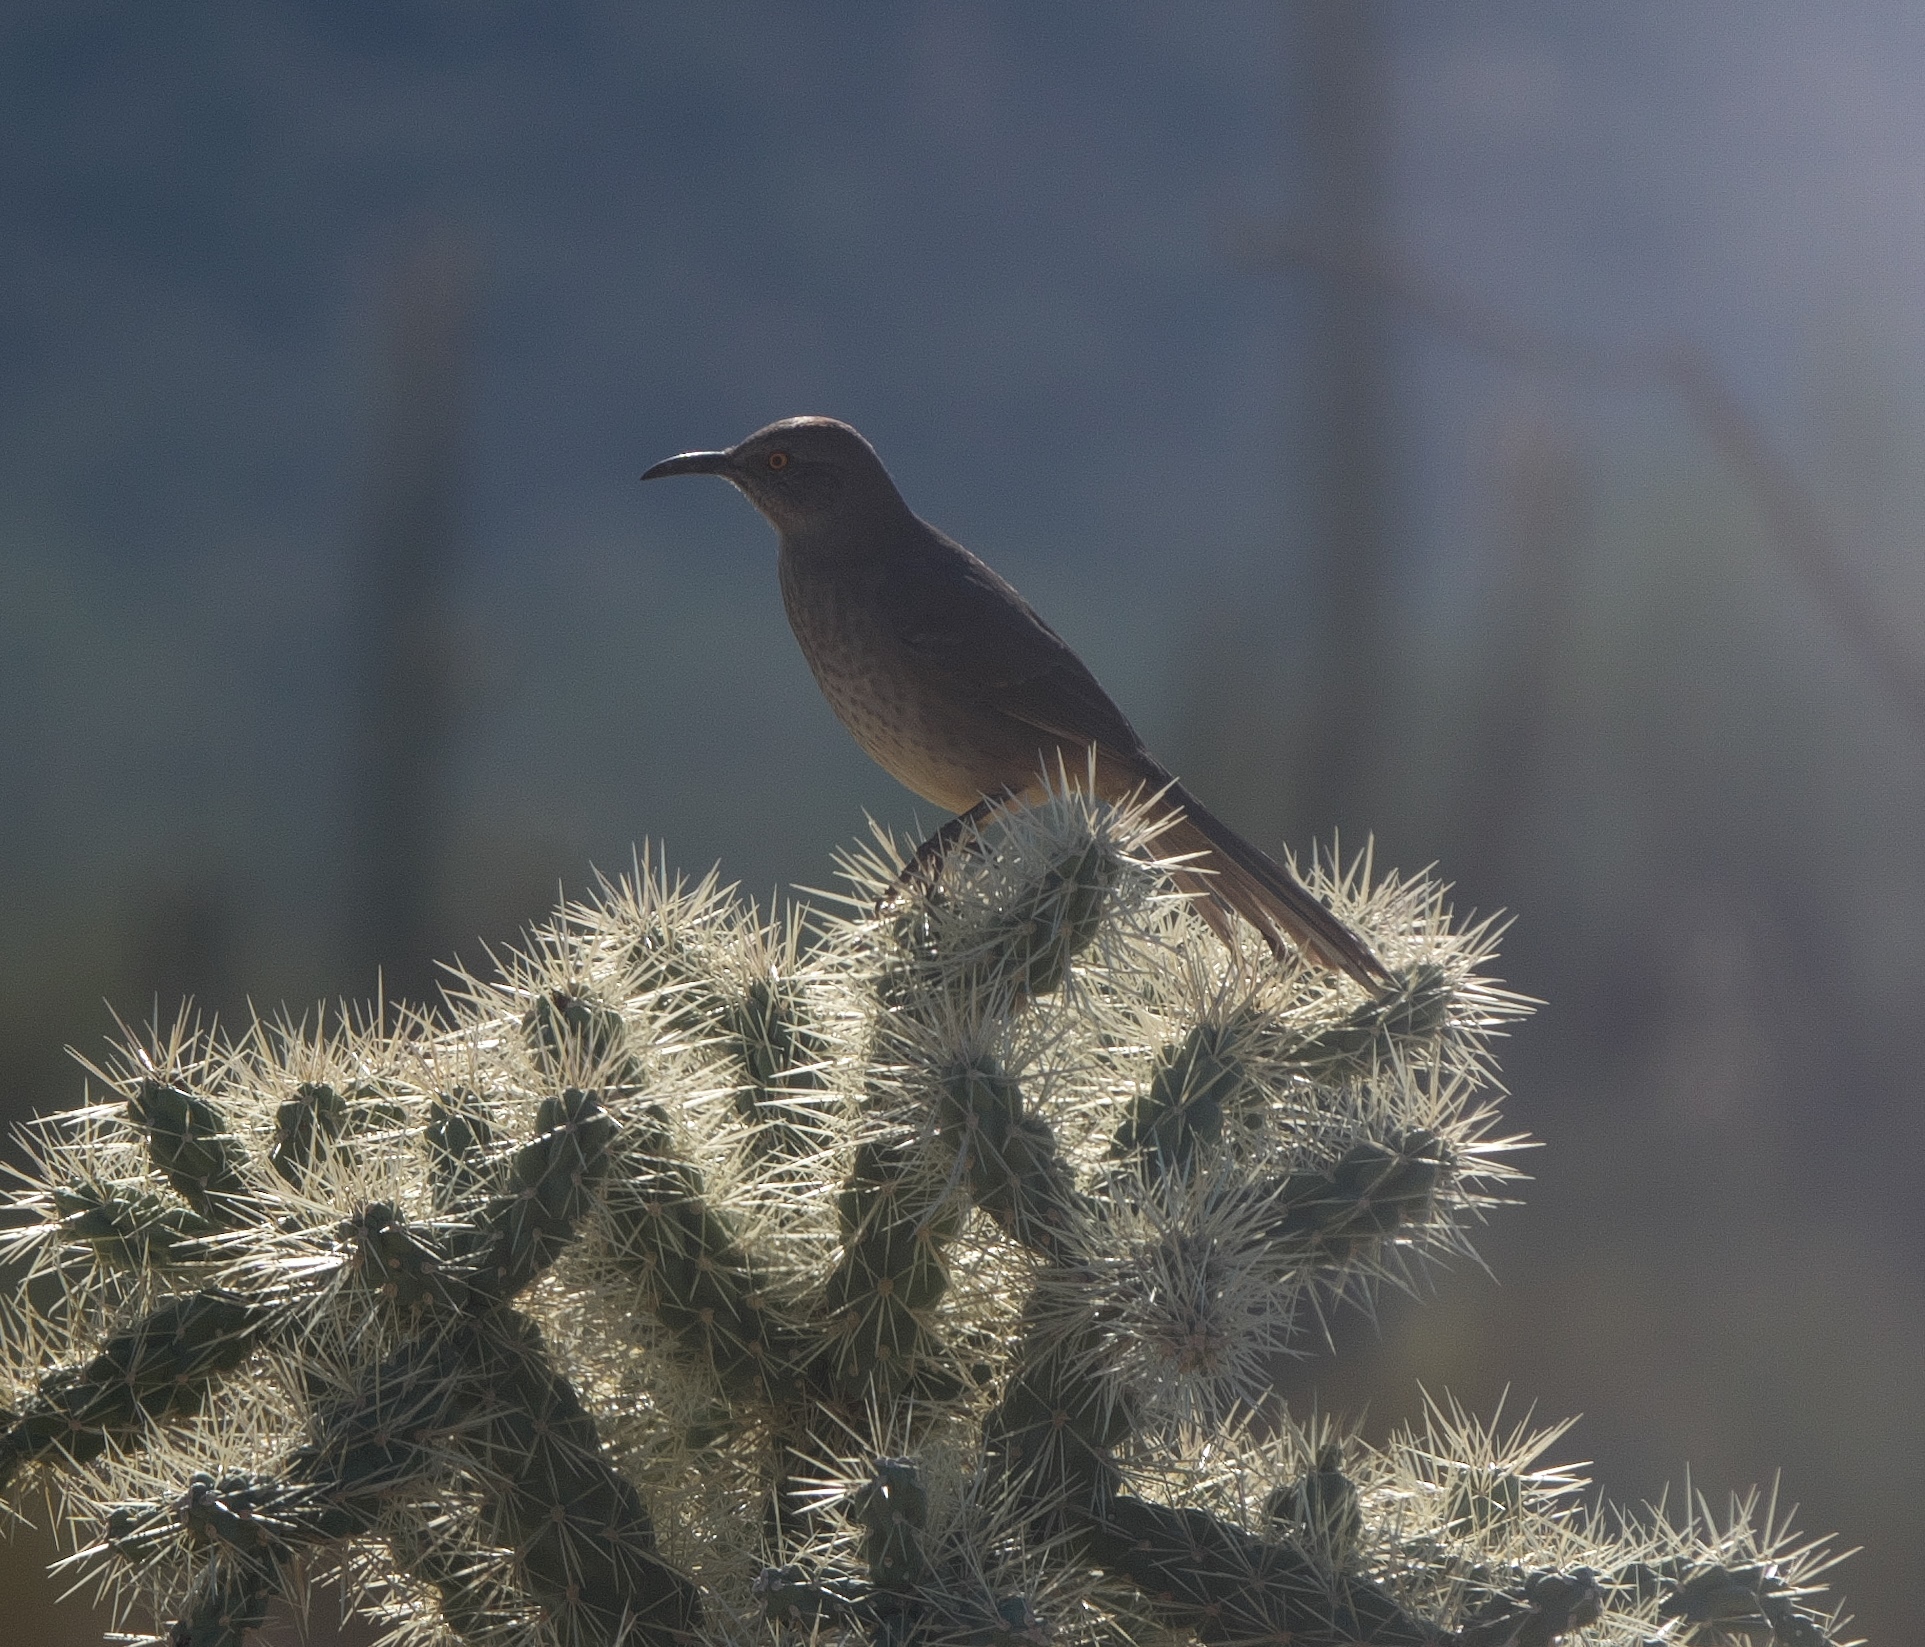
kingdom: Animalia
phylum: Chordata
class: Aves
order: Passeriformes
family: Mimidae
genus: Toxostoma
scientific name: Toxostoma curvirostre
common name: Curve-billed thrasher
